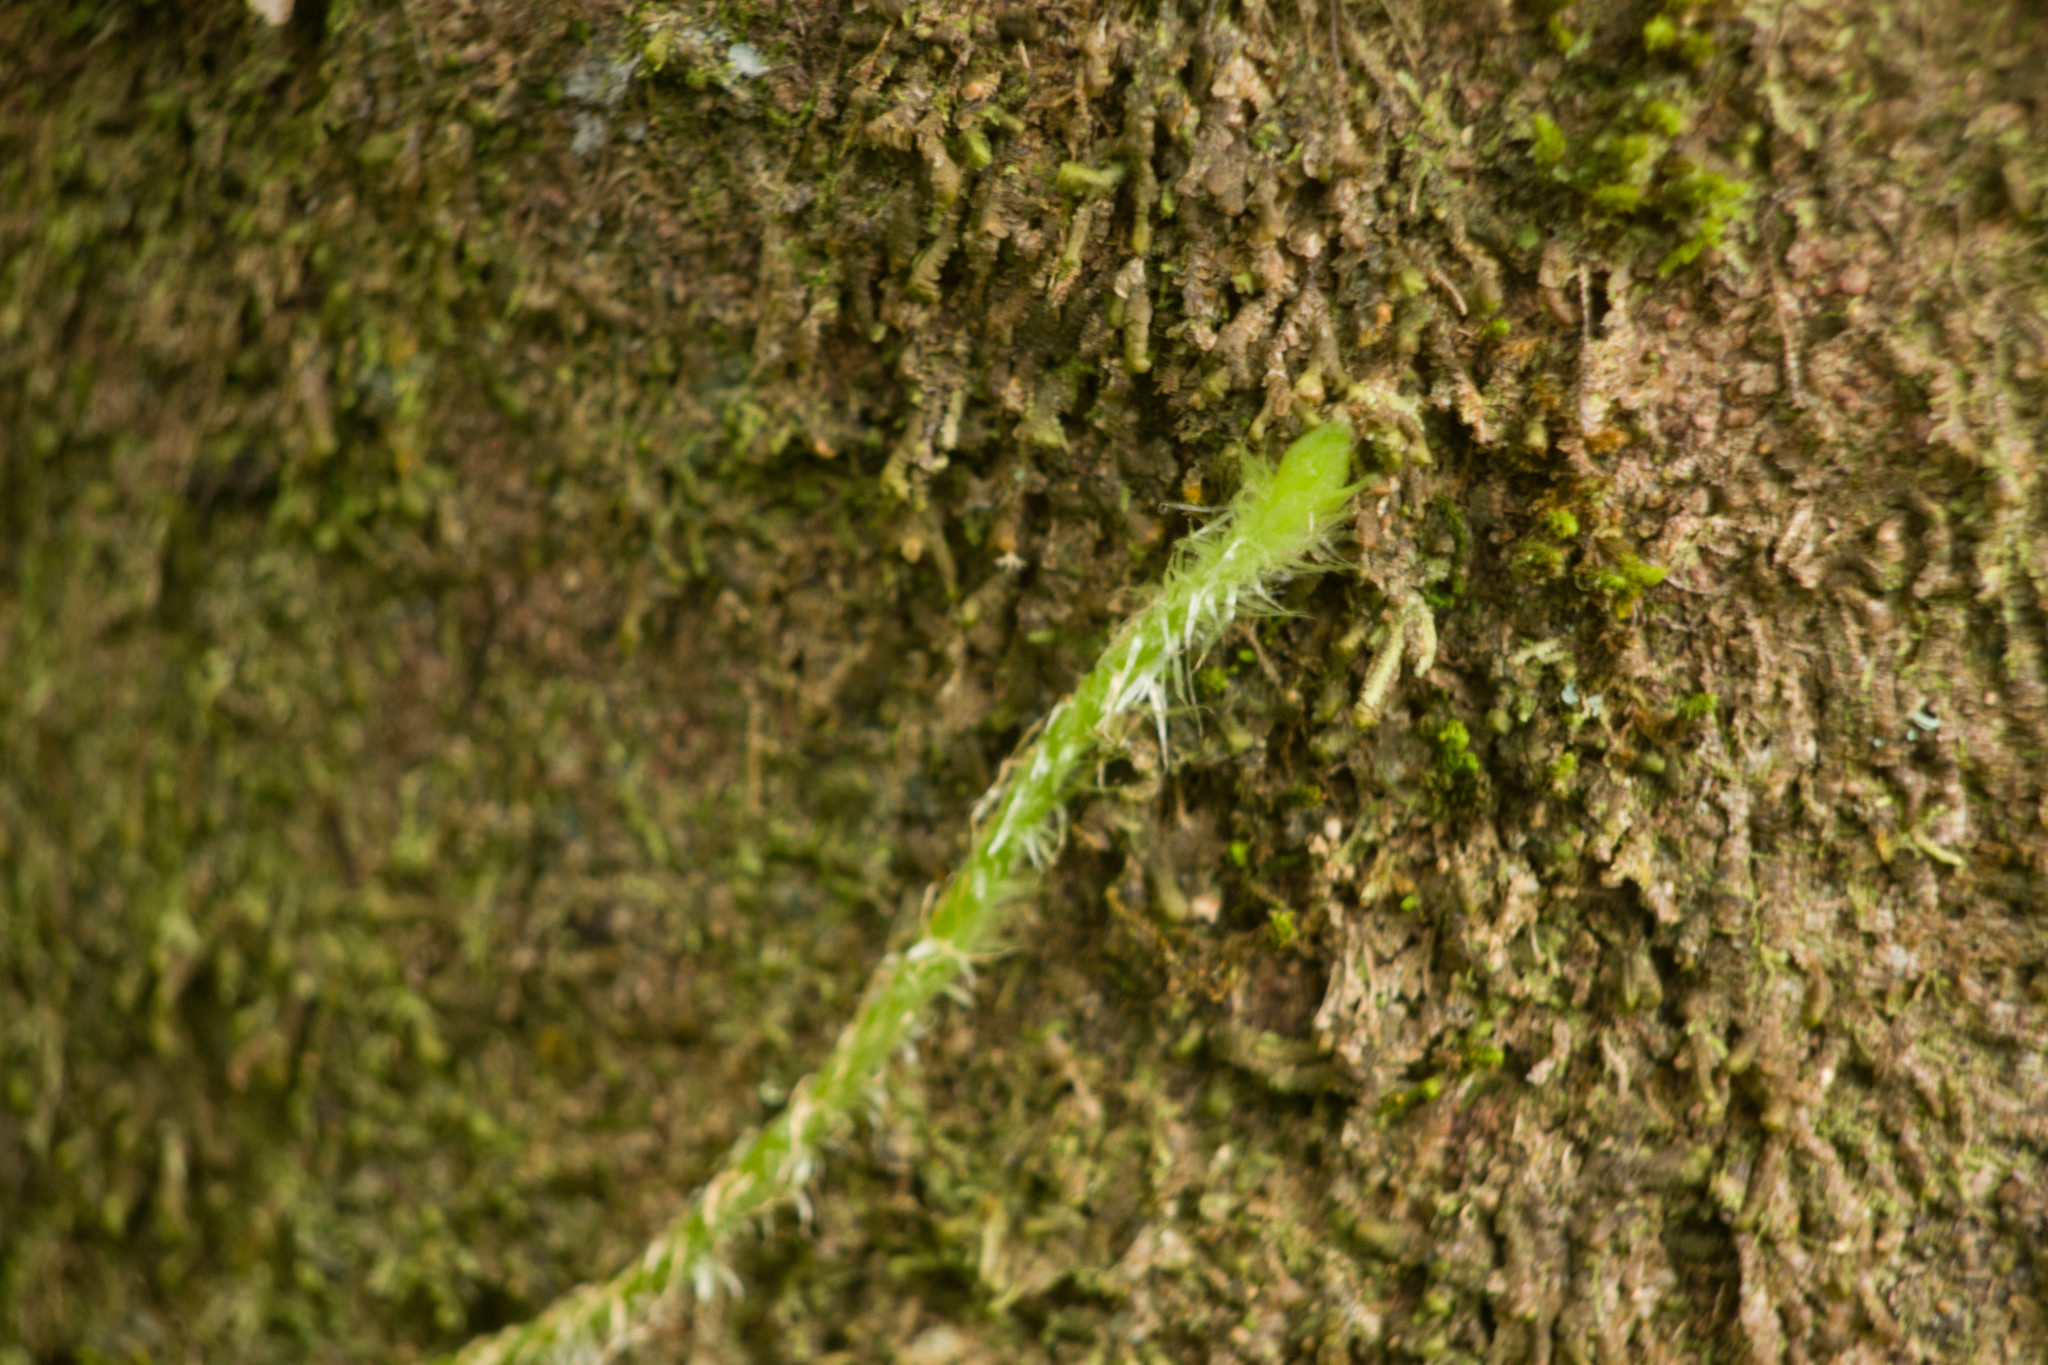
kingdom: Plantae
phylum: Tracheophyta
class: Polypodiopsida
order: Polypodiales
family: Nephrolepidaceae
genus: Nephrolepis
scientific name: Nephrolepis exaltata
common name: Sword fern
